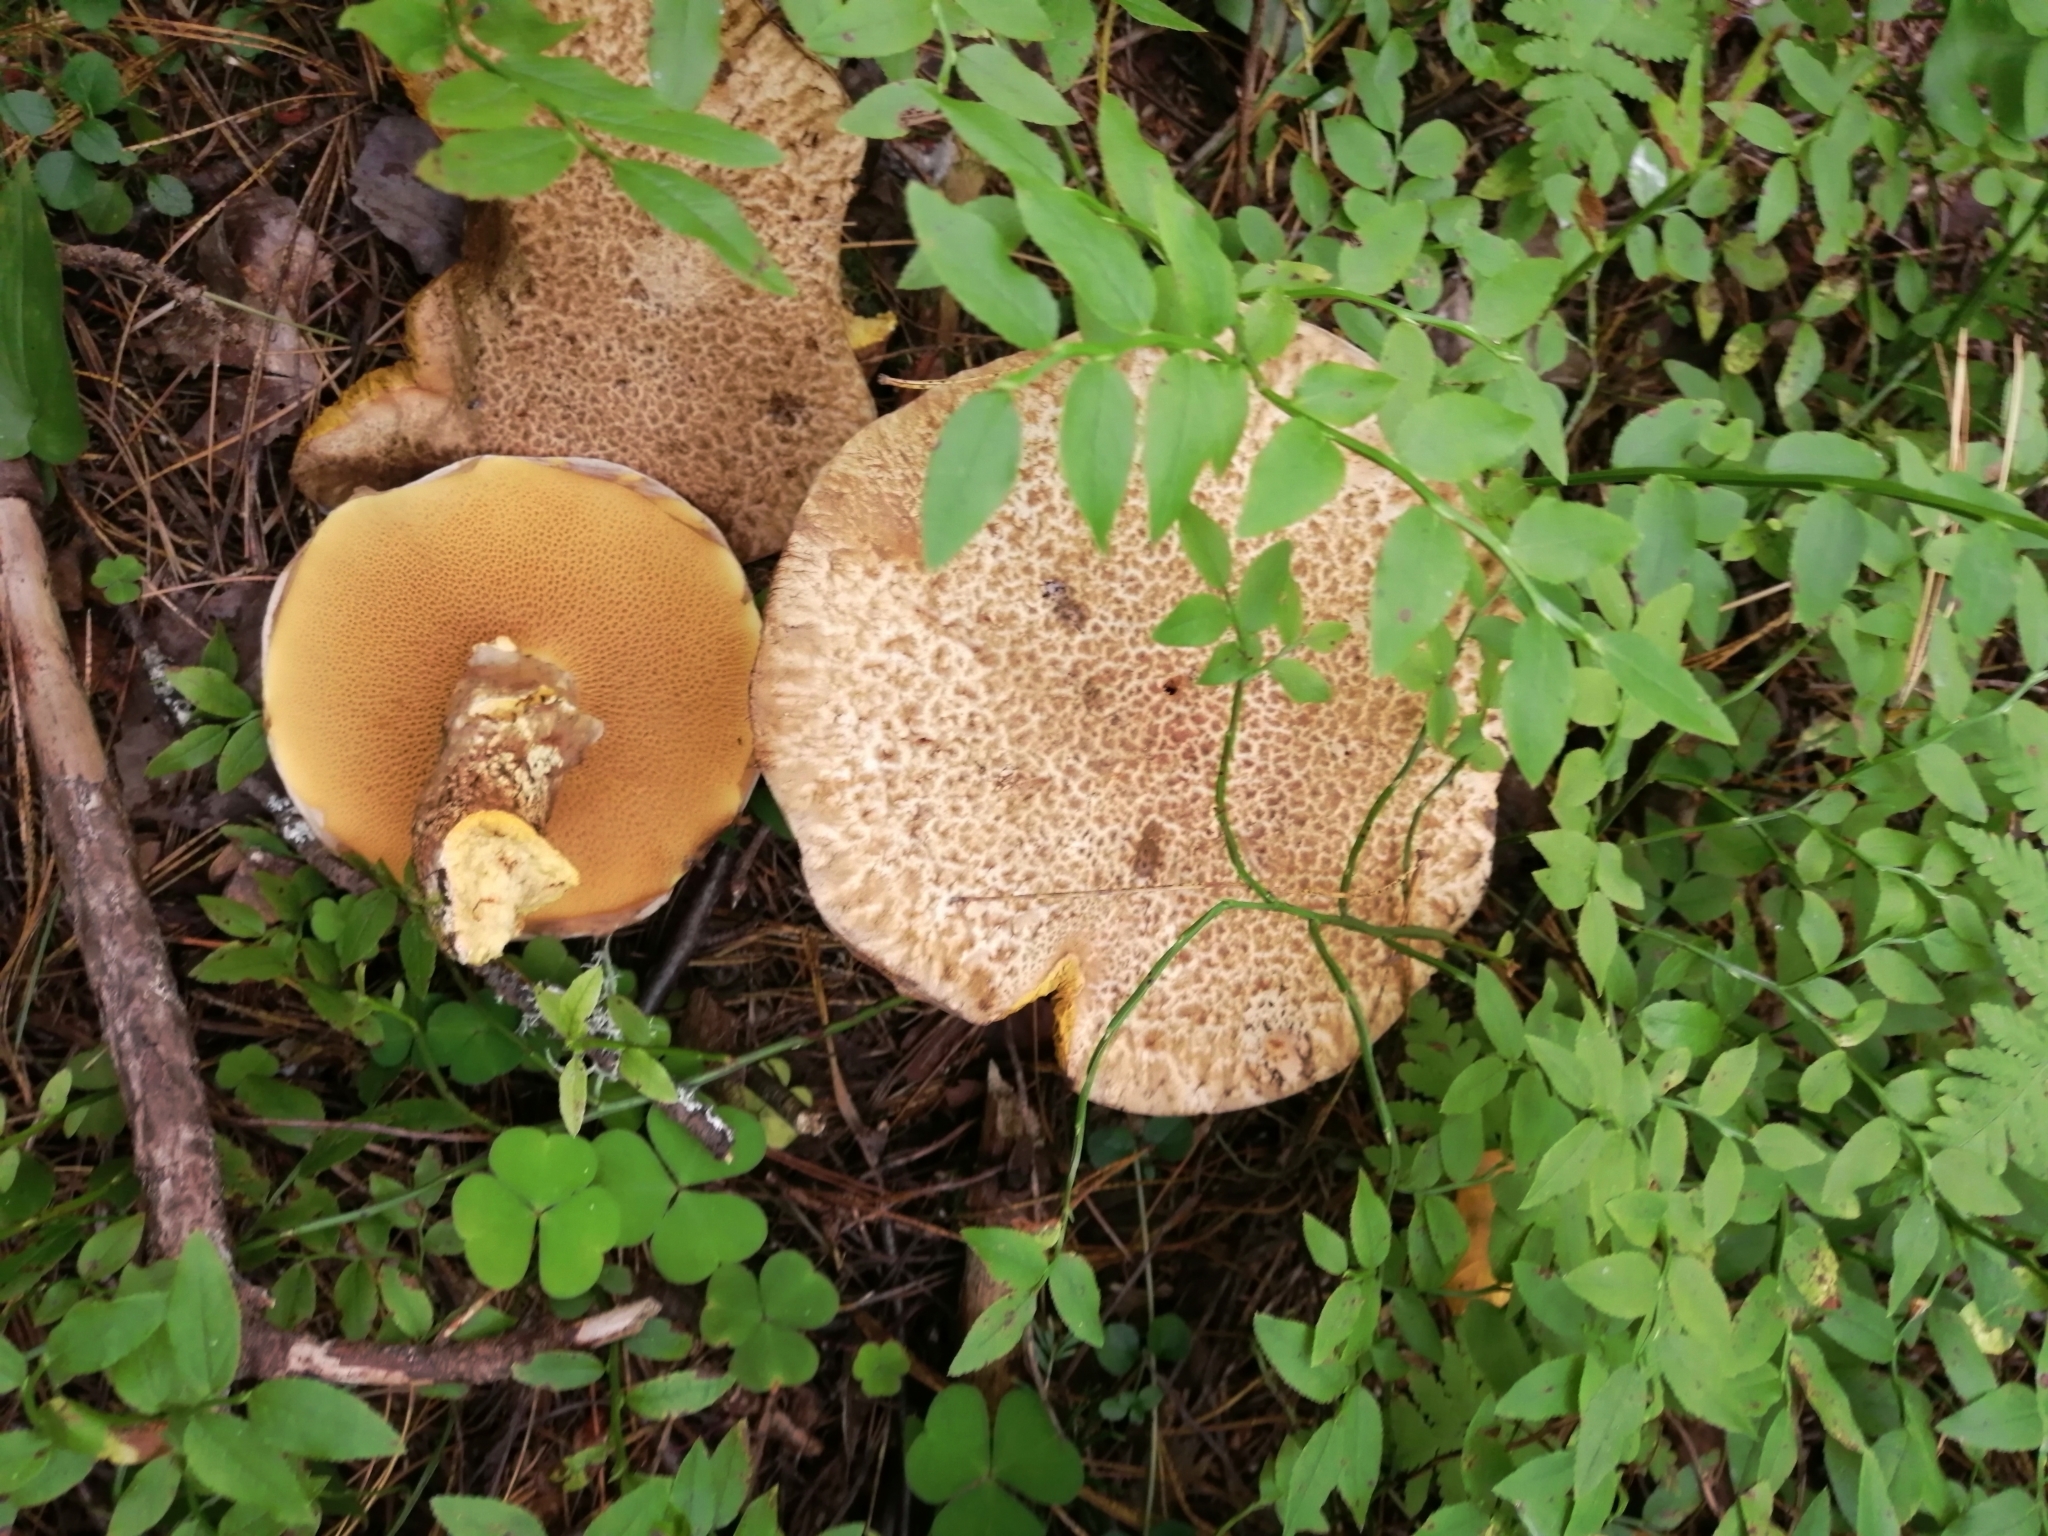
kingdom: Fungi
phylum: Basidiomycota
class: Agaricomycetes
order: Boletales
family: Suillaceae
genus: Suillus
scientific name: Suillus spraguei
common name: Painted suillus
